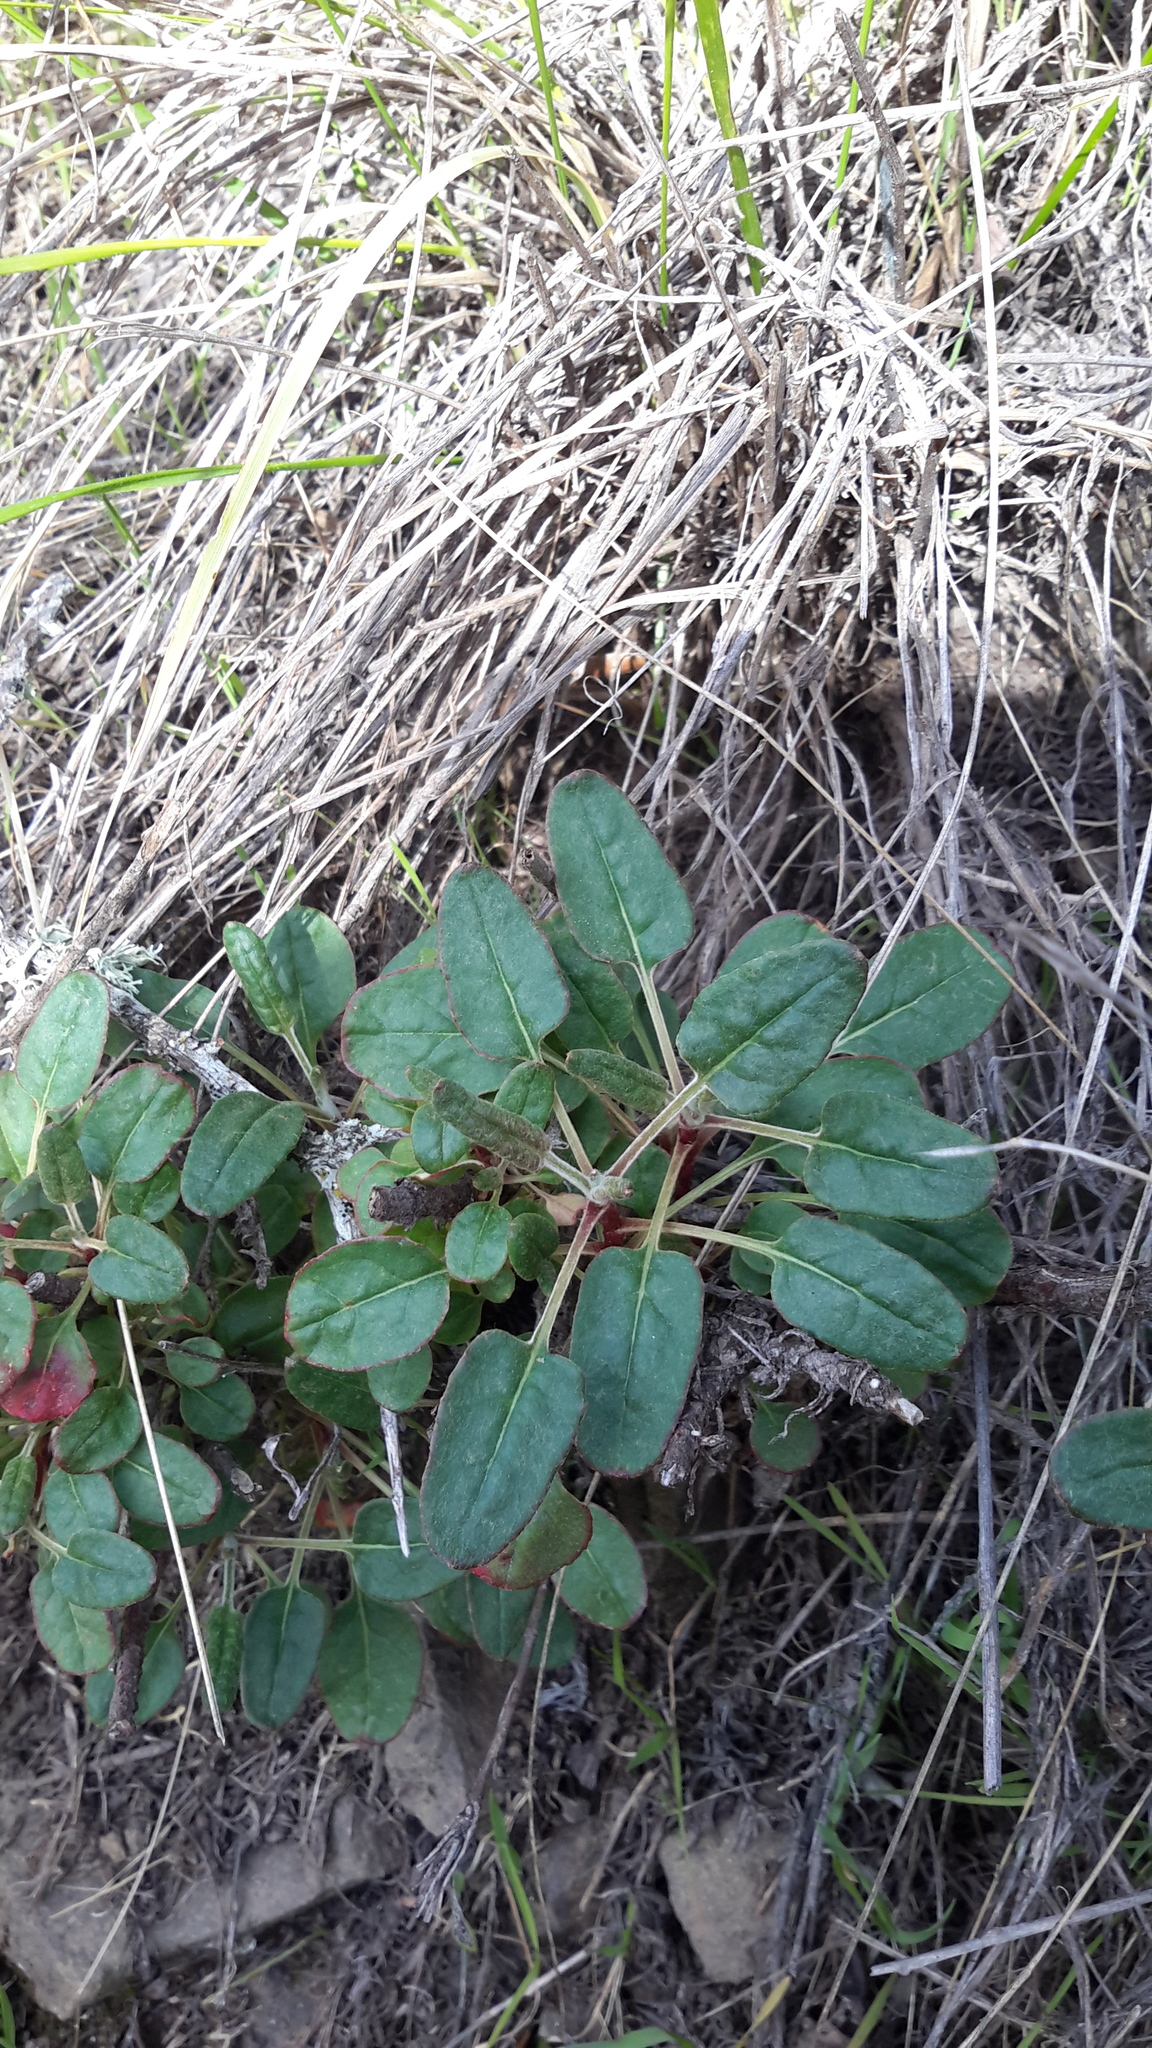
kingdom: Plantae
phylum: Tracheophyta
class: Magnoliopsida
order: Caryophyllales
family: Polygonaceae
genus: Eriogonum
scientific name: Eriogonum nudum
